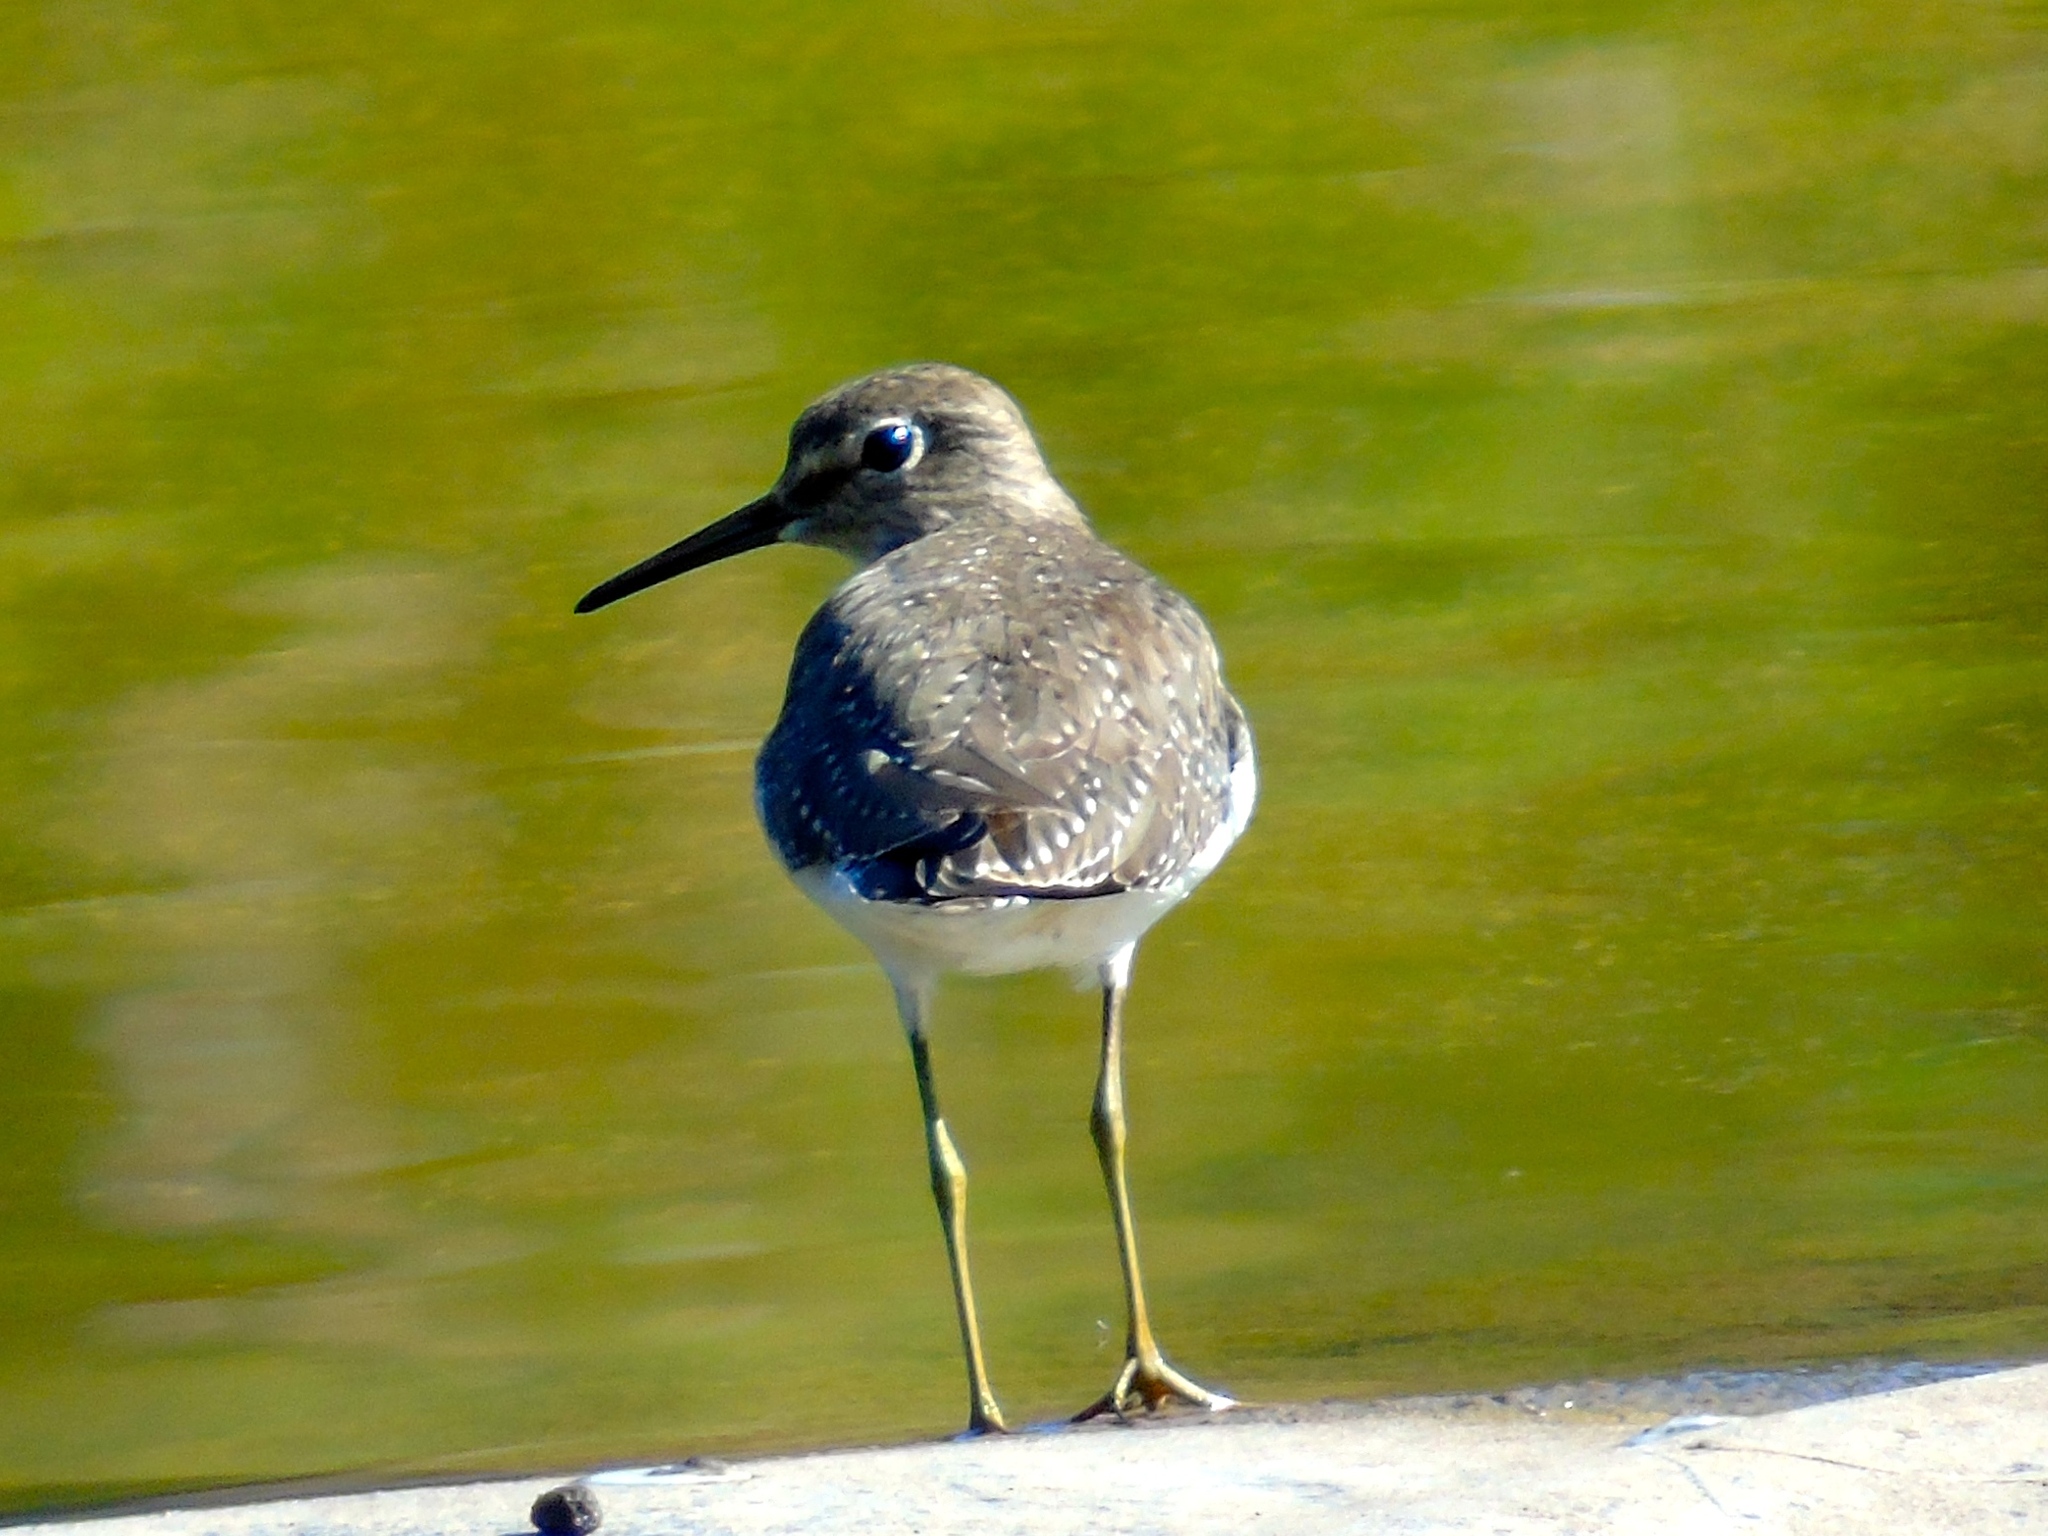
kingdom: Animalia
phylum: Chordata
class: Aves
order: Charadriiformes
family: Scolopacidae
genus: Tringa
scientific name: Tringa solitaria
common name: Solitary sandpiper
